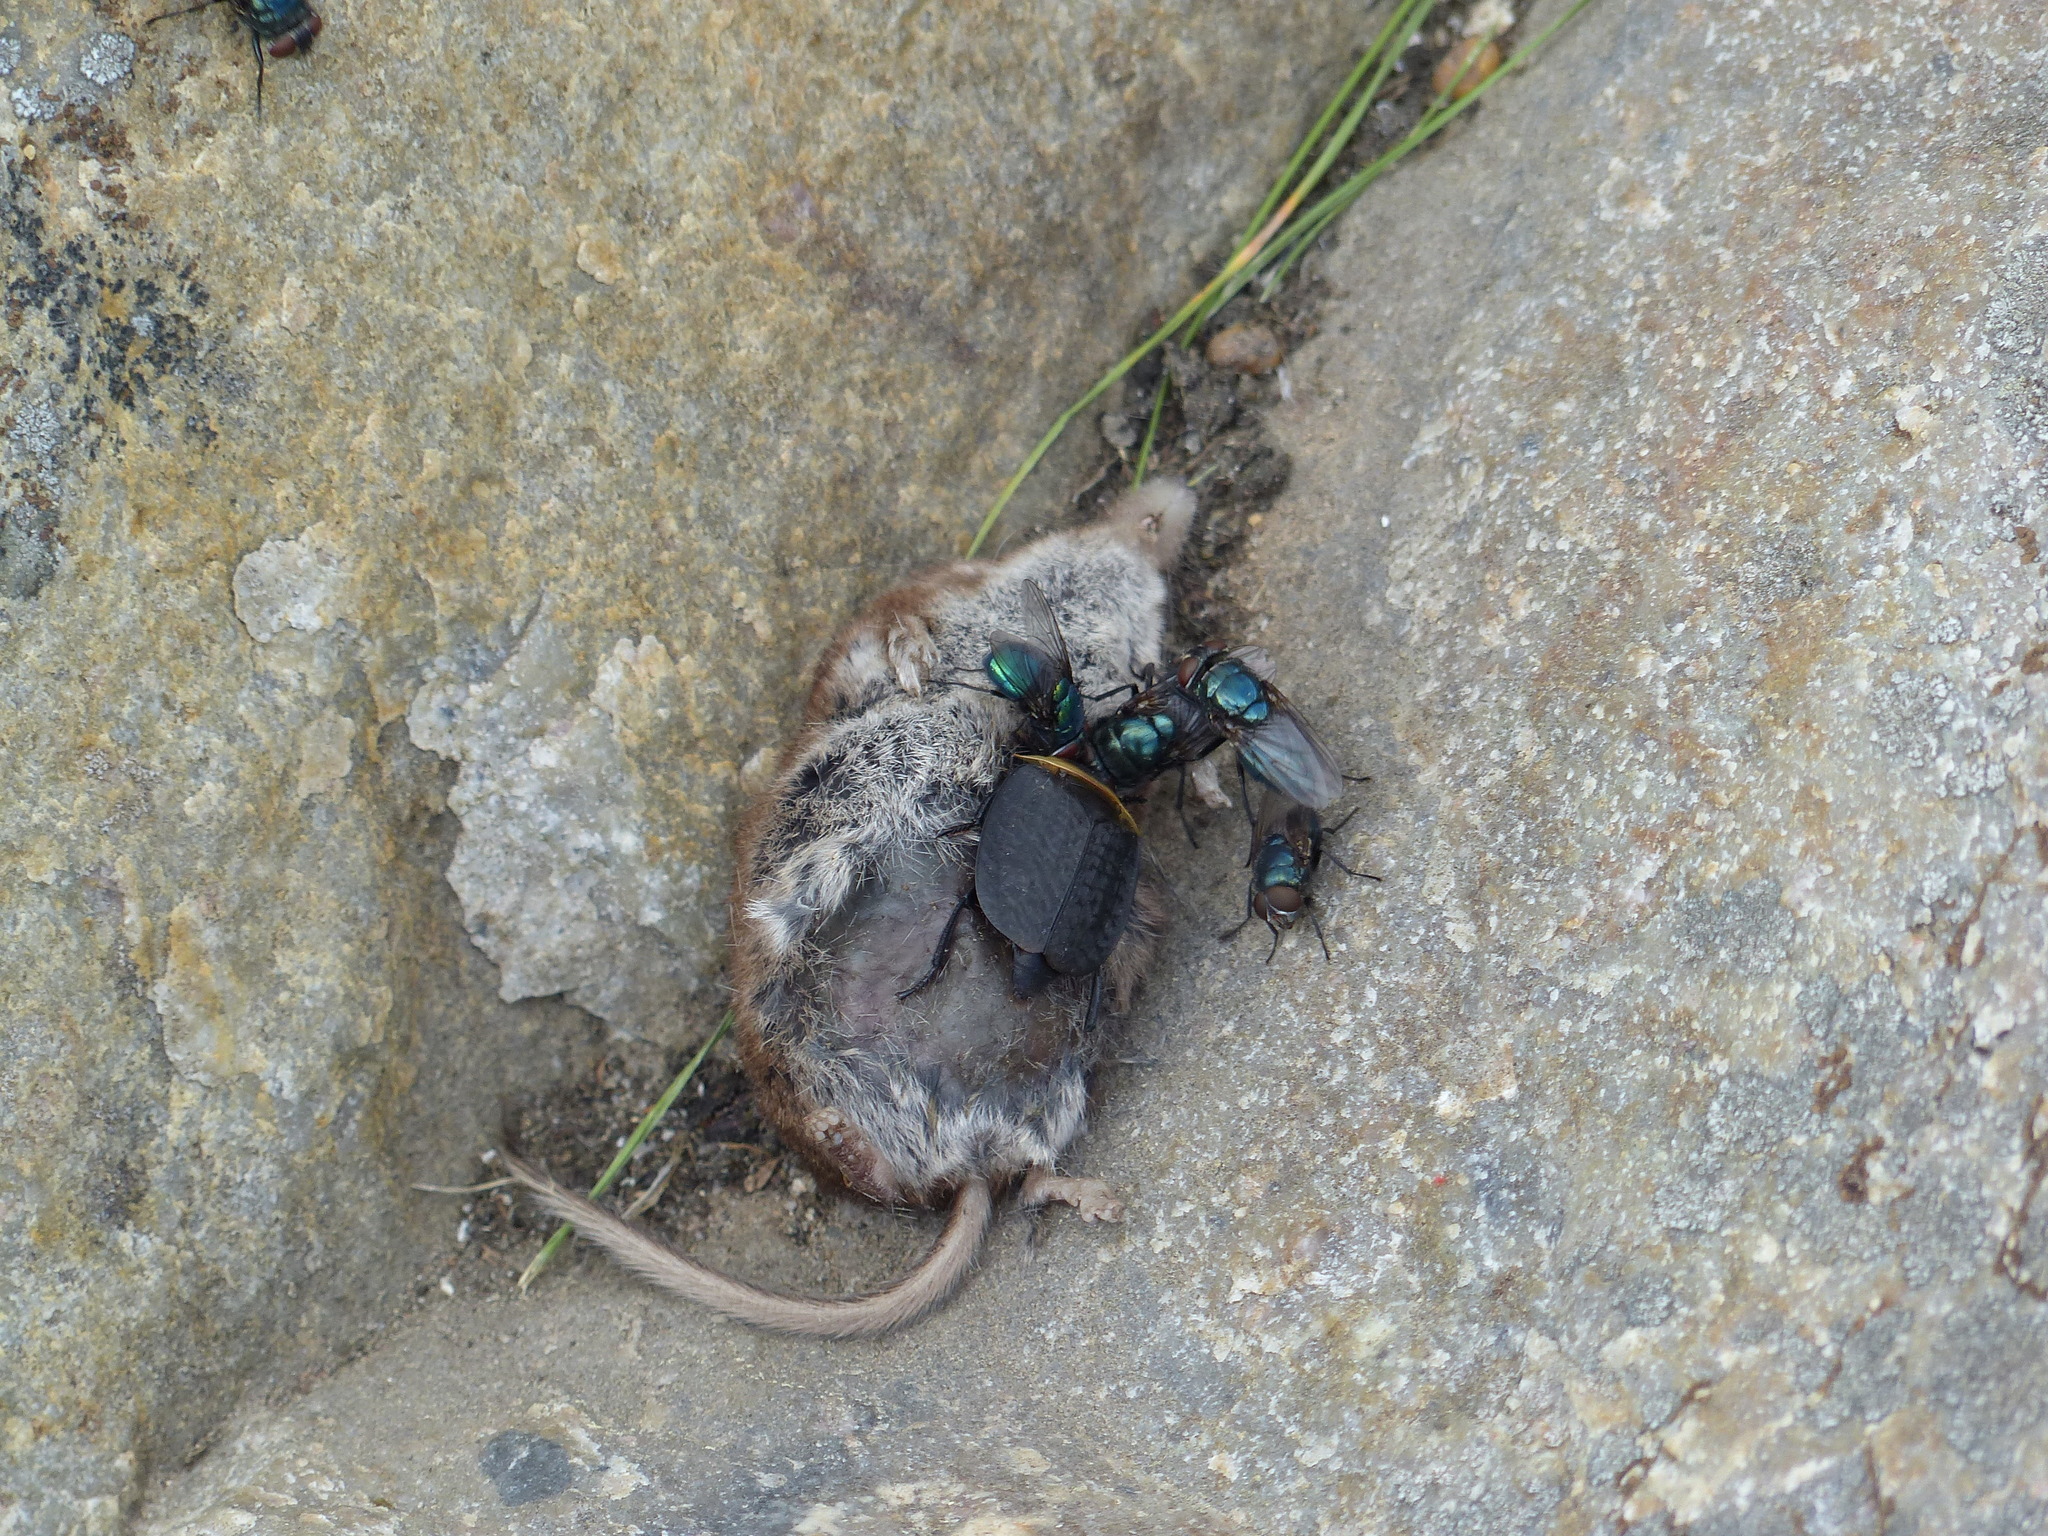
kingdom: Animalia
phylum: Chordata
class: Mammalia
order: Soricomorpha
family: Soricidae
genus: Sorex
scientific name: Sorex cinereus
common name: Cinereus shrew
